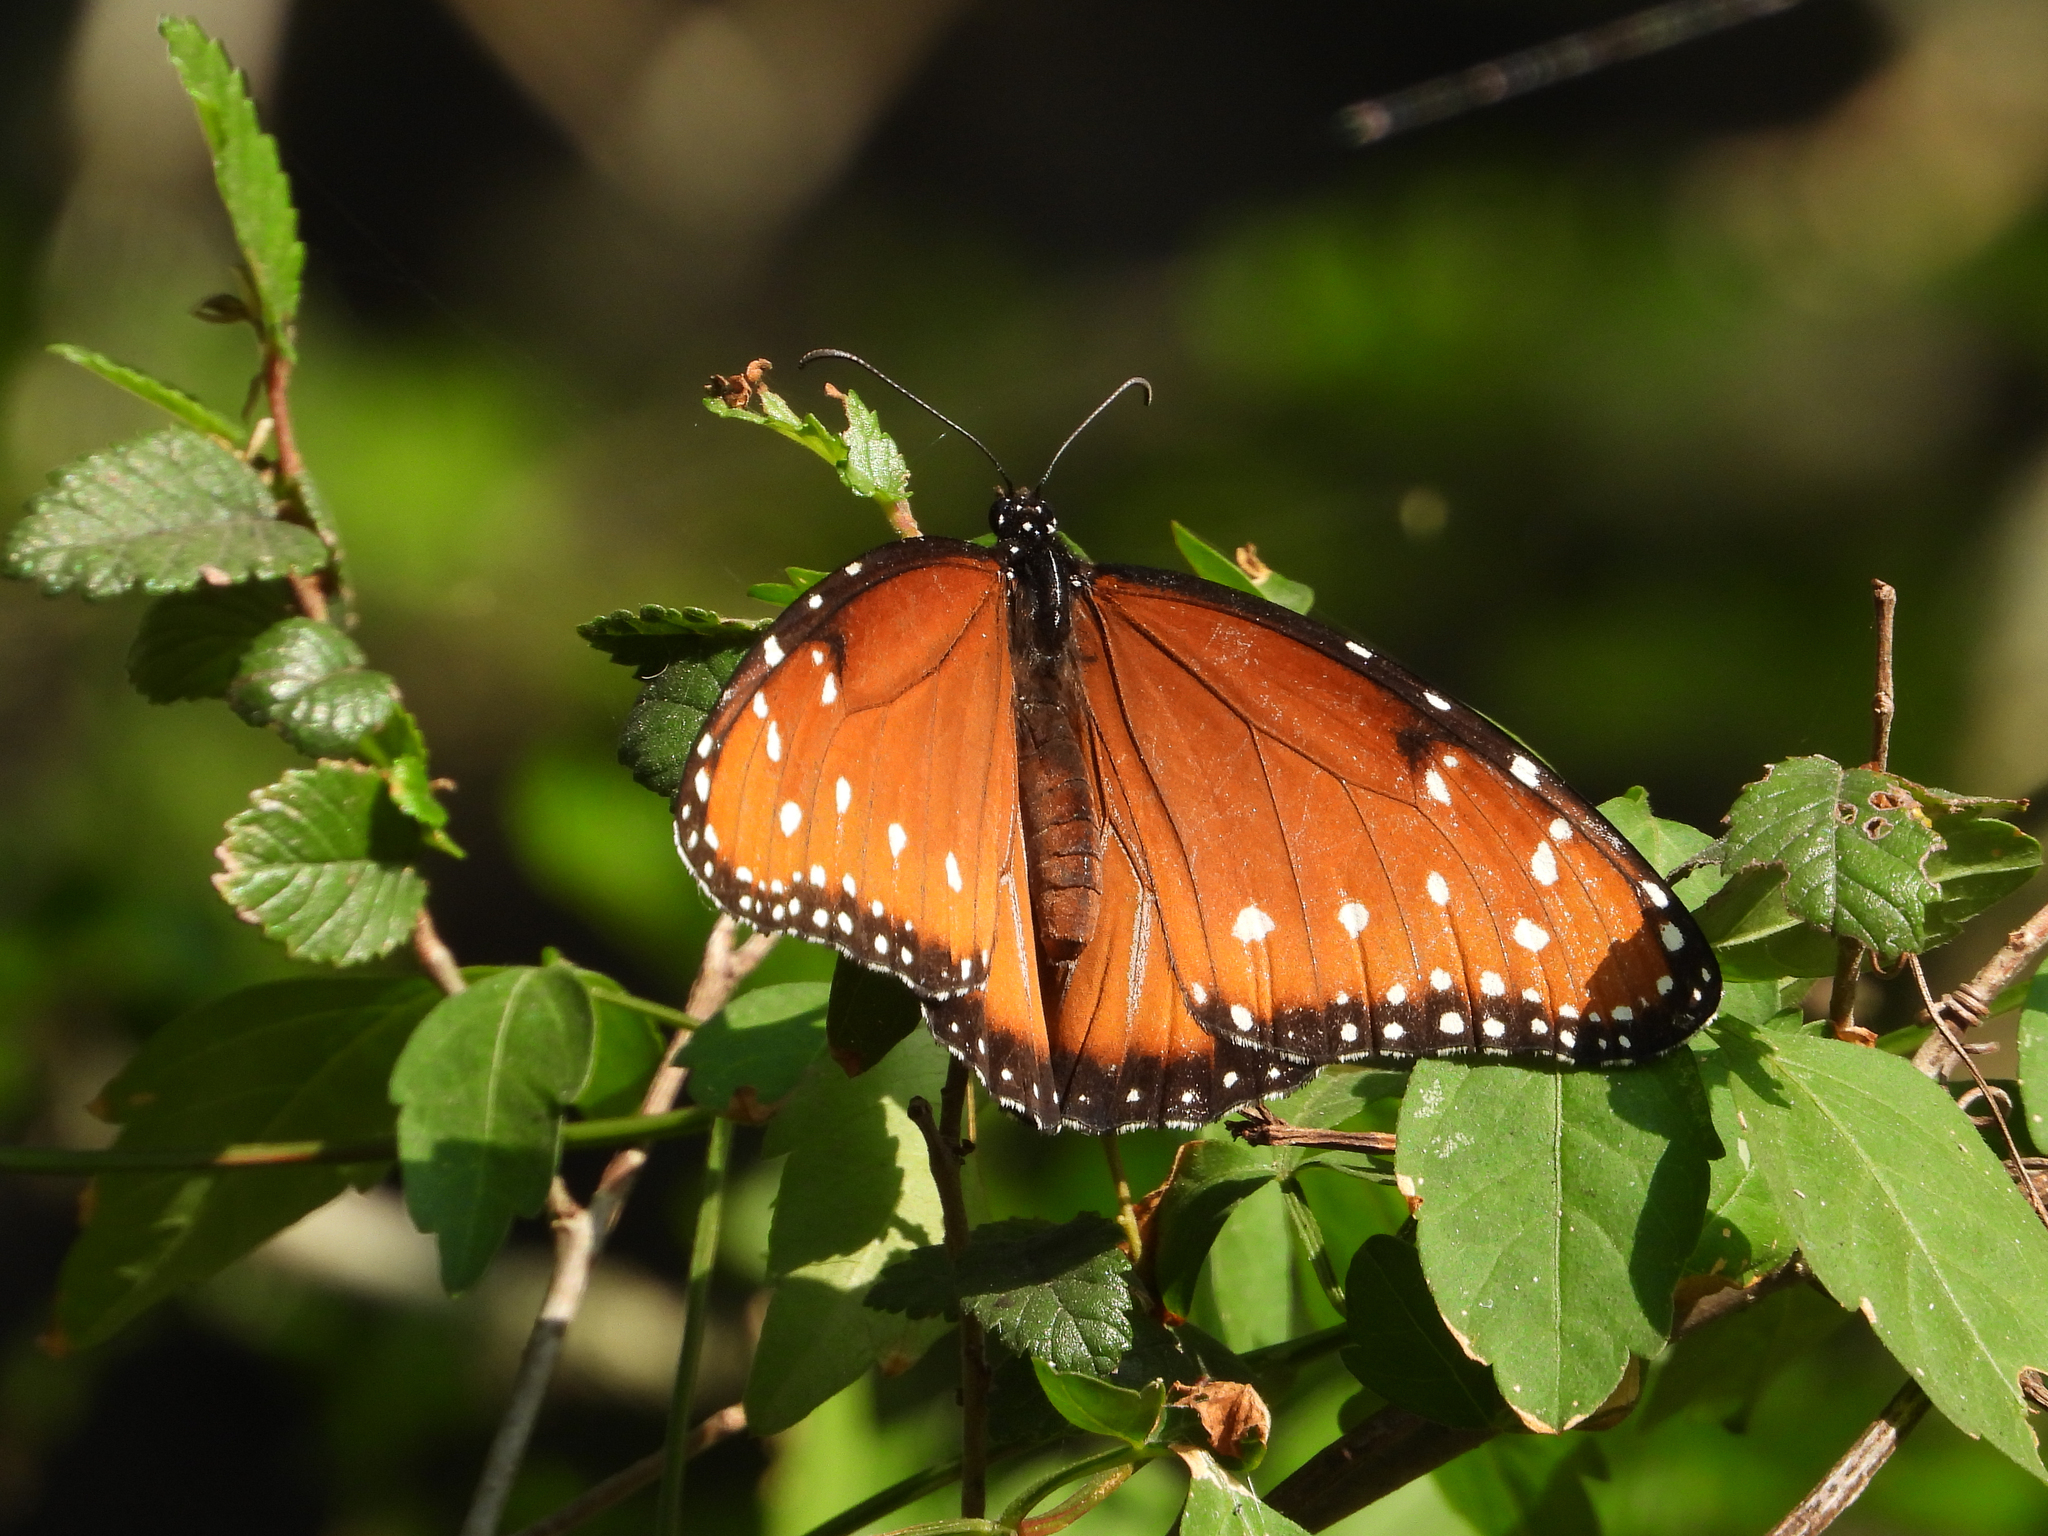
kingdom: Animalia
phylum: Arthropoda
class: Insecta
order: Lepidoptera
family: Nymphalidae
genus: Danaus
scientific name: Danaus gilippus
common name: Queen
